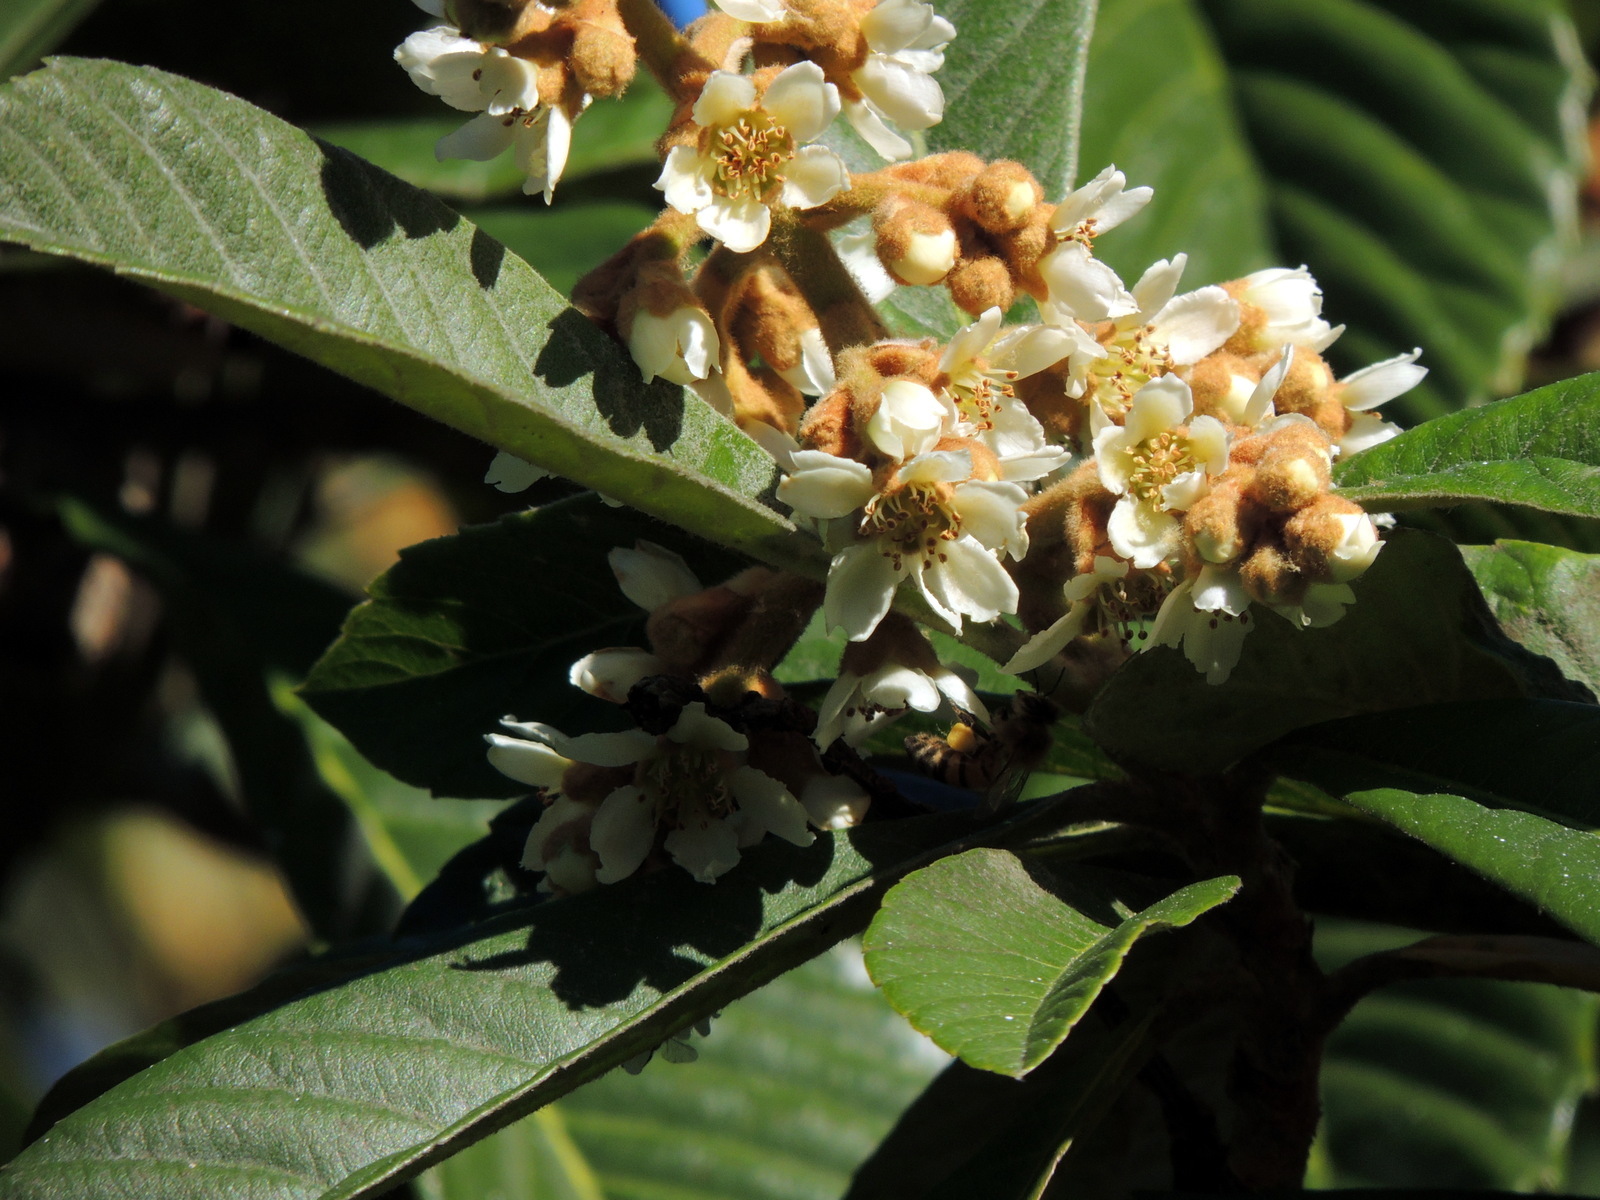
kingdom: Plantae
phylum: Tracheophyta
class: Magnoliopsida
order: Rosales
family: Rosaceae
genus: Rhaphiolepis
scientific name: Rhaphiolepis bibas
